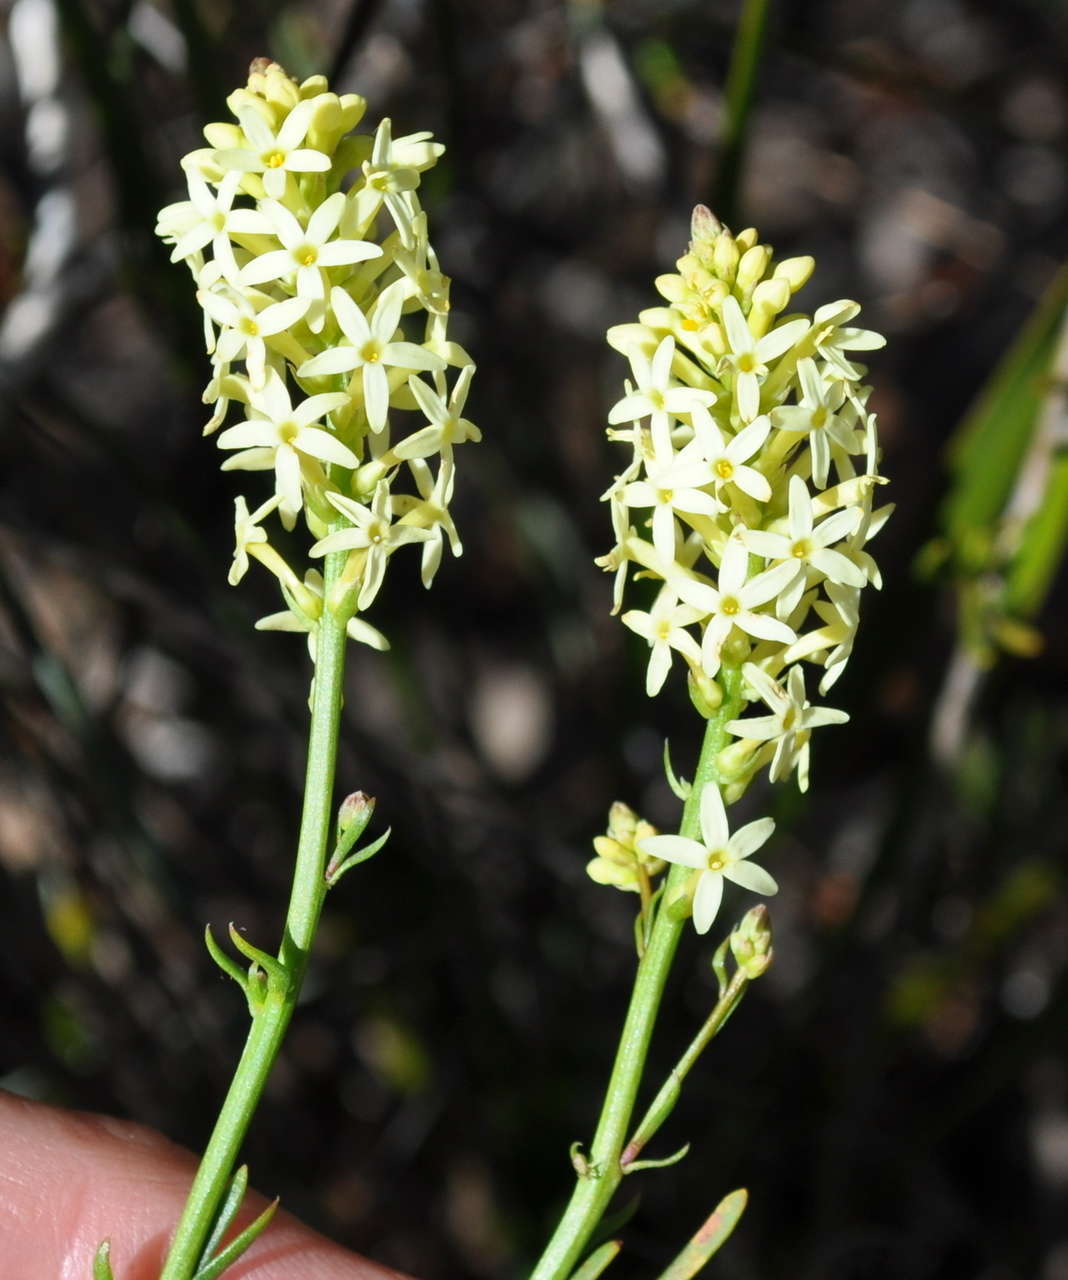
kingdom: Plantae
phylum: Tracheophyta
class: Magnoliopsida
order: Celastrales
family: Celastraceae
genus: Stackhousia
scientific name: Stackhousia monogyna
